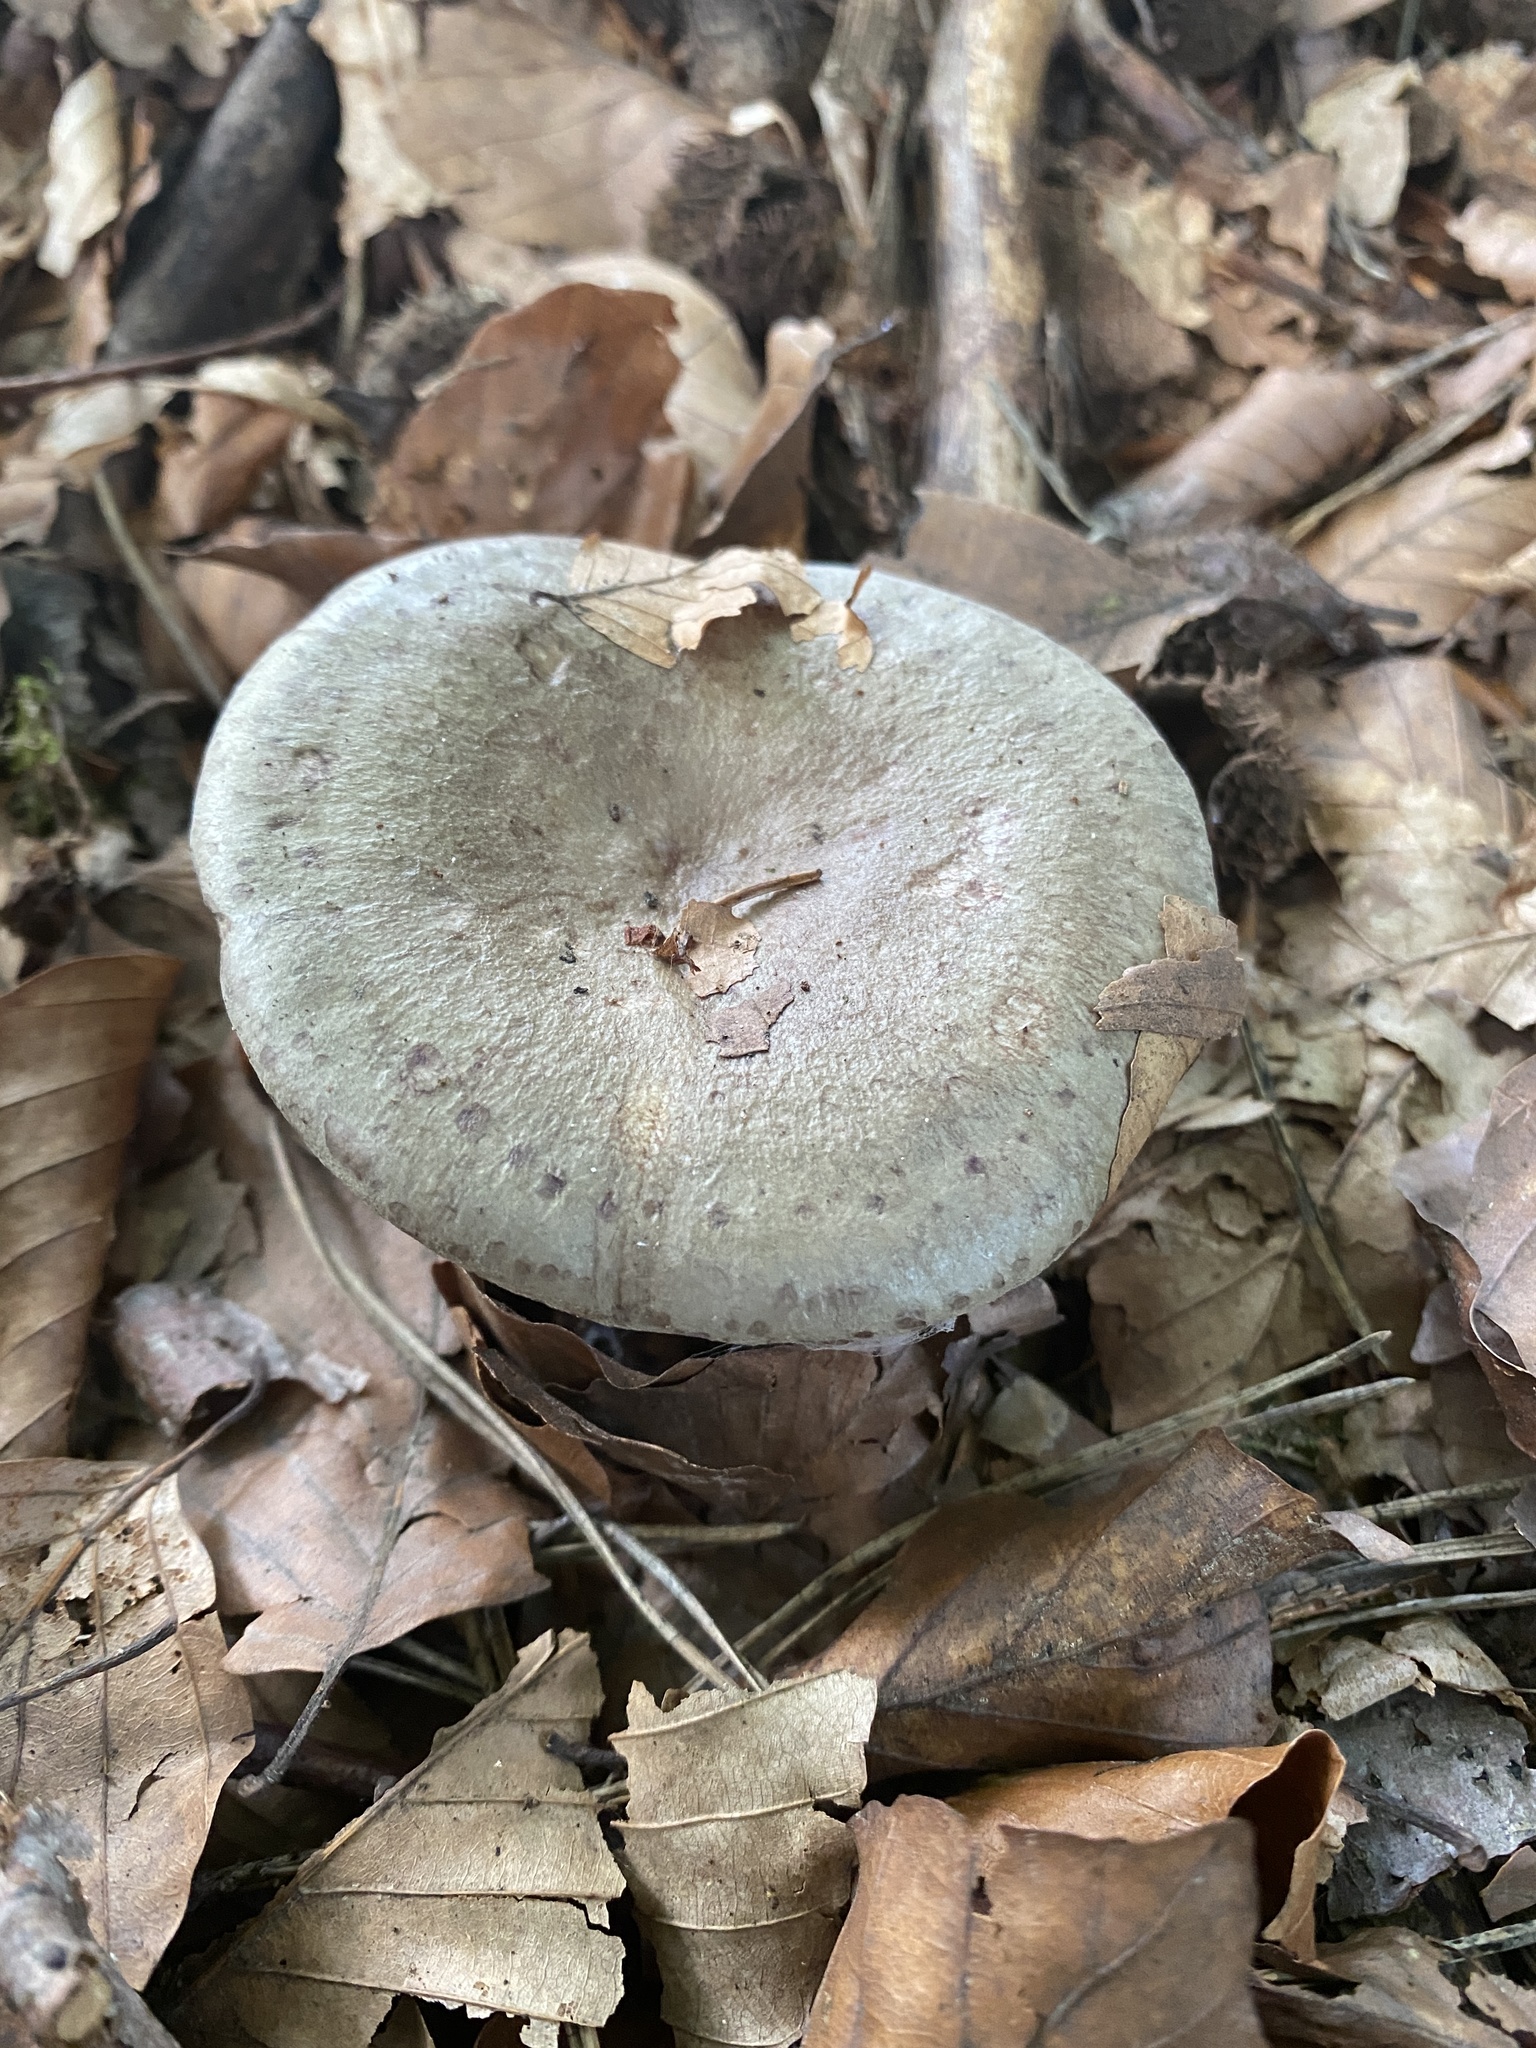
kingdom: Fungi
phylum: Basidiomycota
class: Agaricomycetes
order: Russulales
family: Russulaceae
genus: Lactarius
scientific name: Lactarius blennius
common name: Beech milkcap
